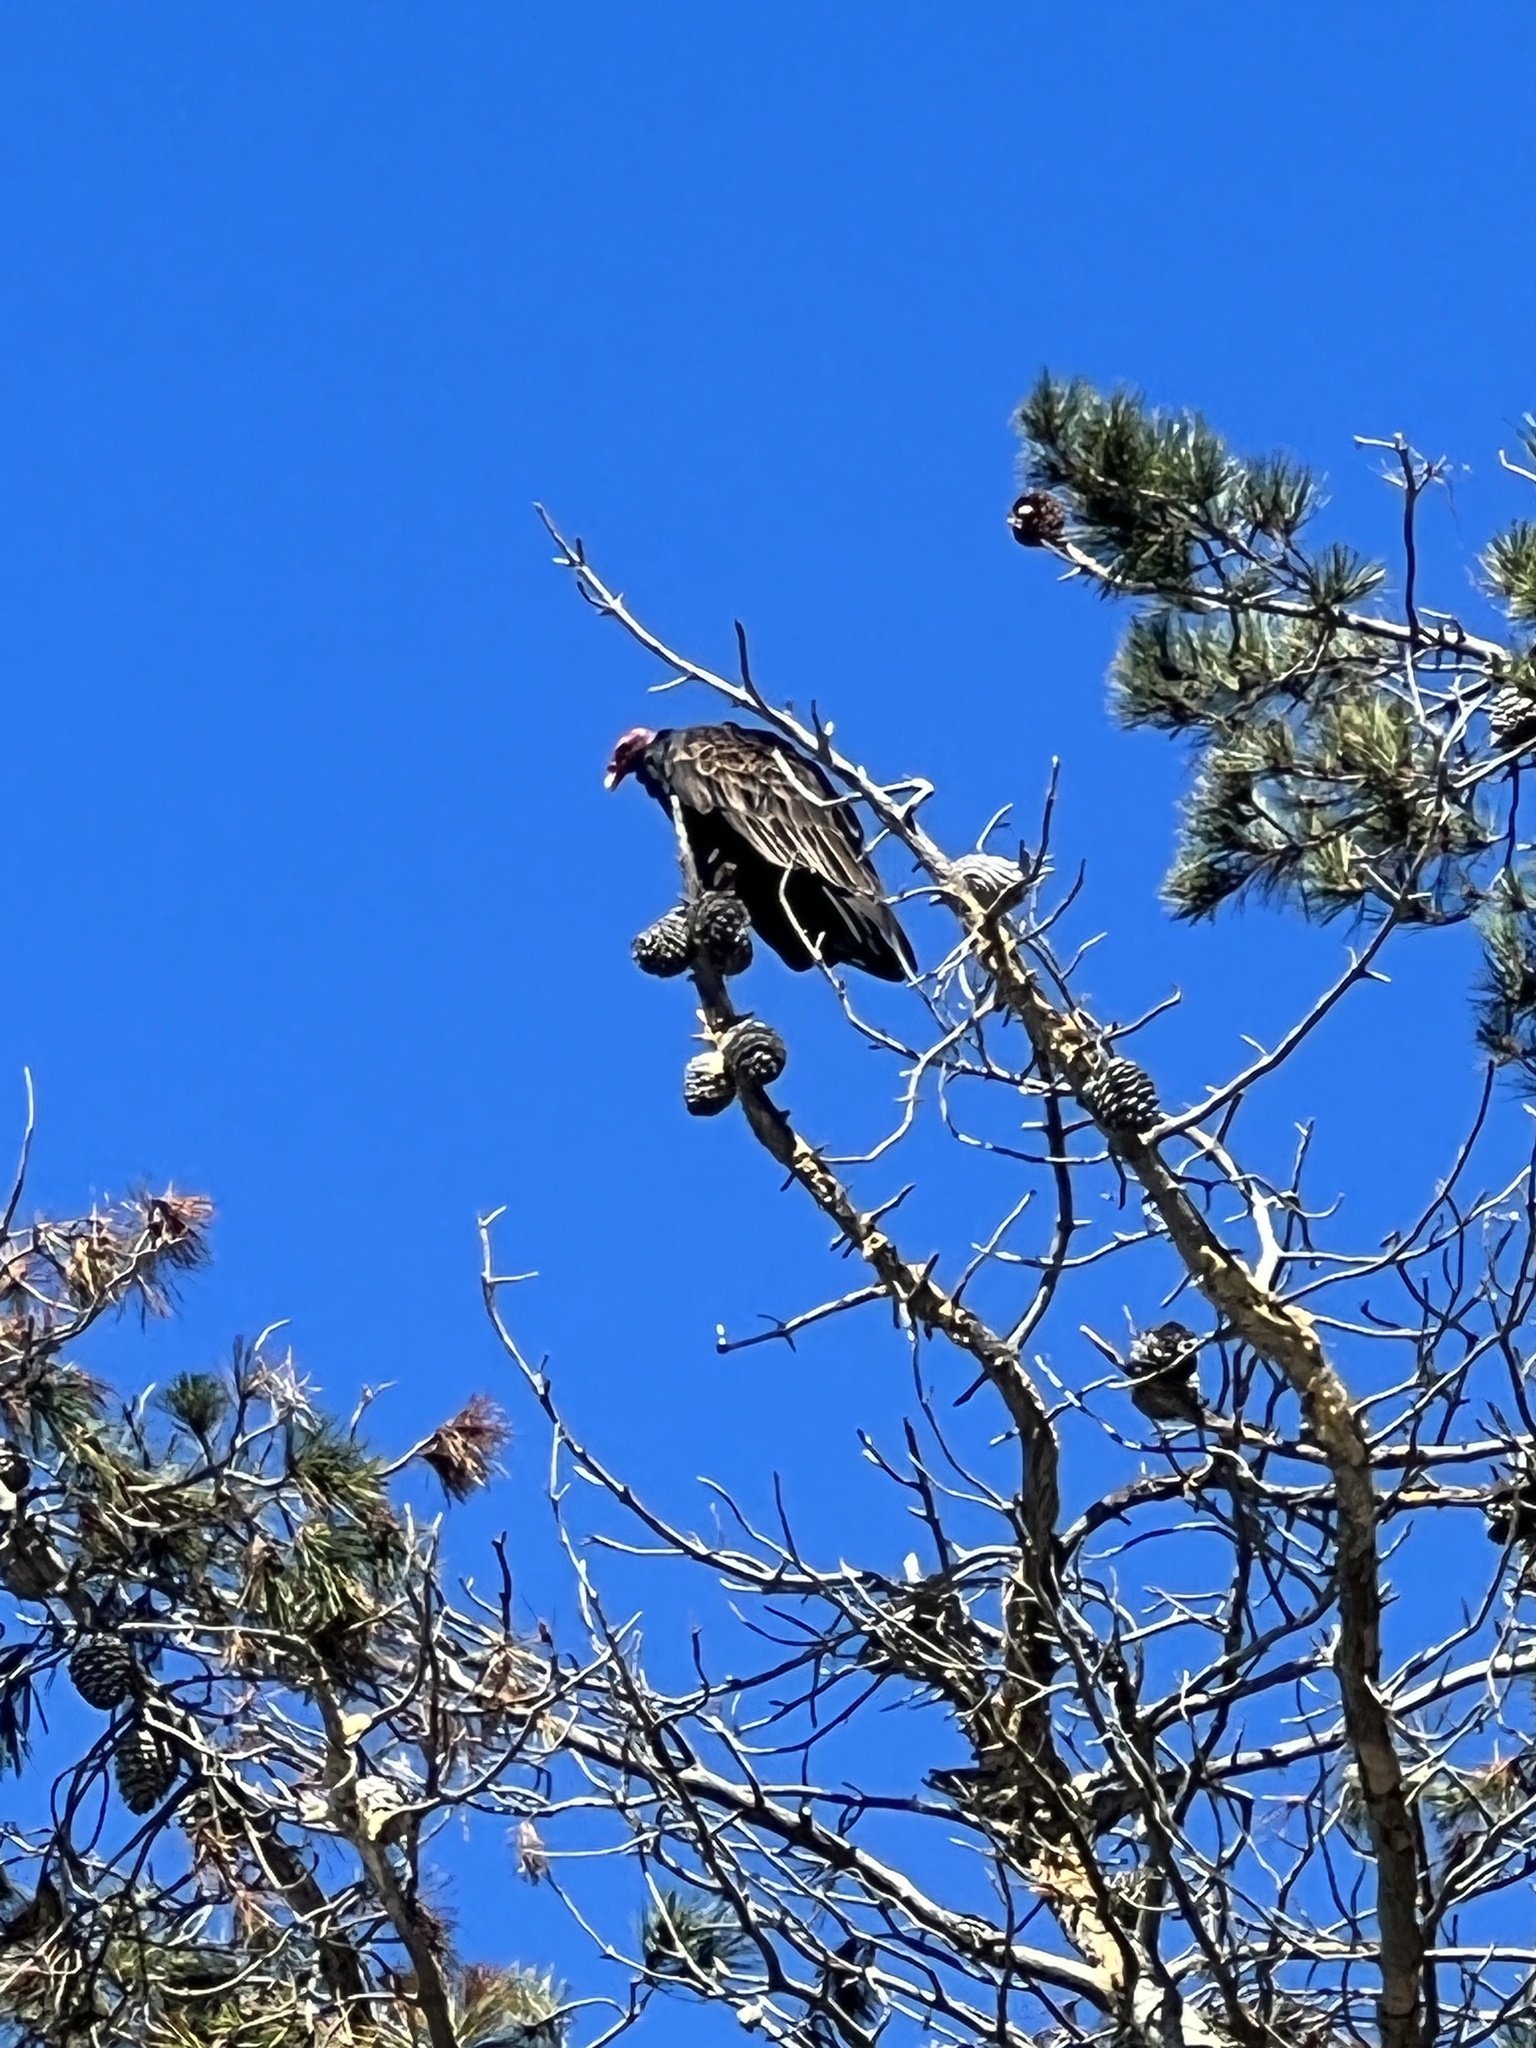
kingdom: Animalia
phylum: Chordata
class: Aves
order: Accipitriformes
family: Cathartidae
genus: Cathartes
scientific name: Cathartes aura
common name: Turkey vulture
